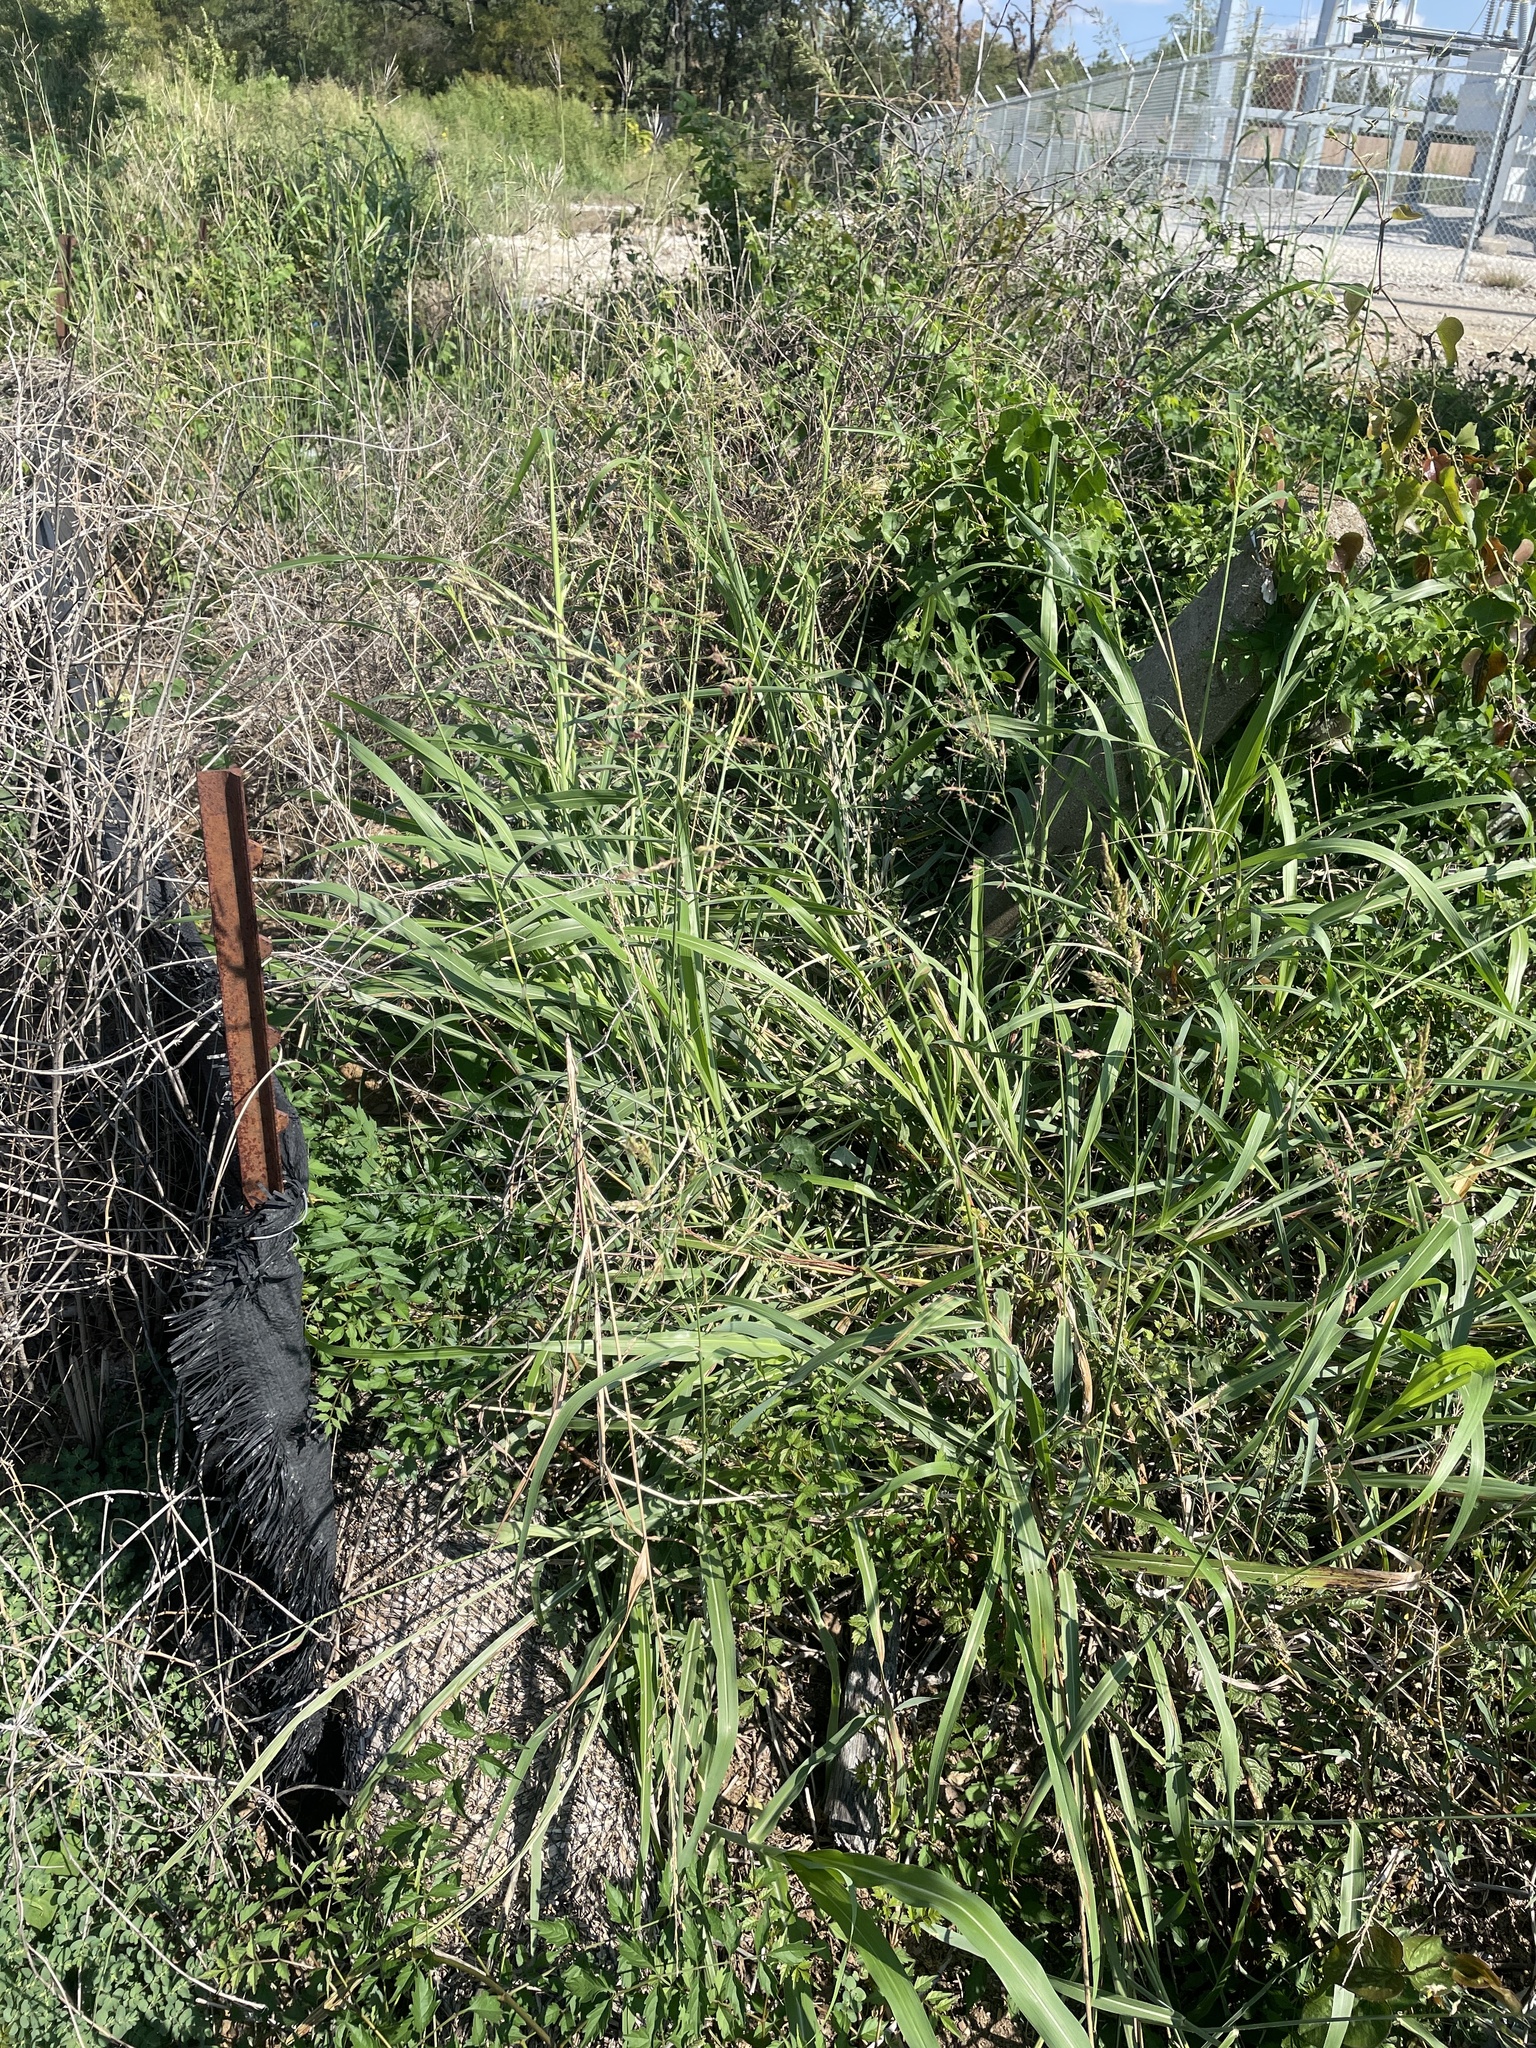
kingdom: Plantae
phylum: Tracheophyta
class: Liliopsida
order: Poales
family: Poaceae
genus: Sorghum
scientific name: Sorghum halepense
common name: Johnson-grass
